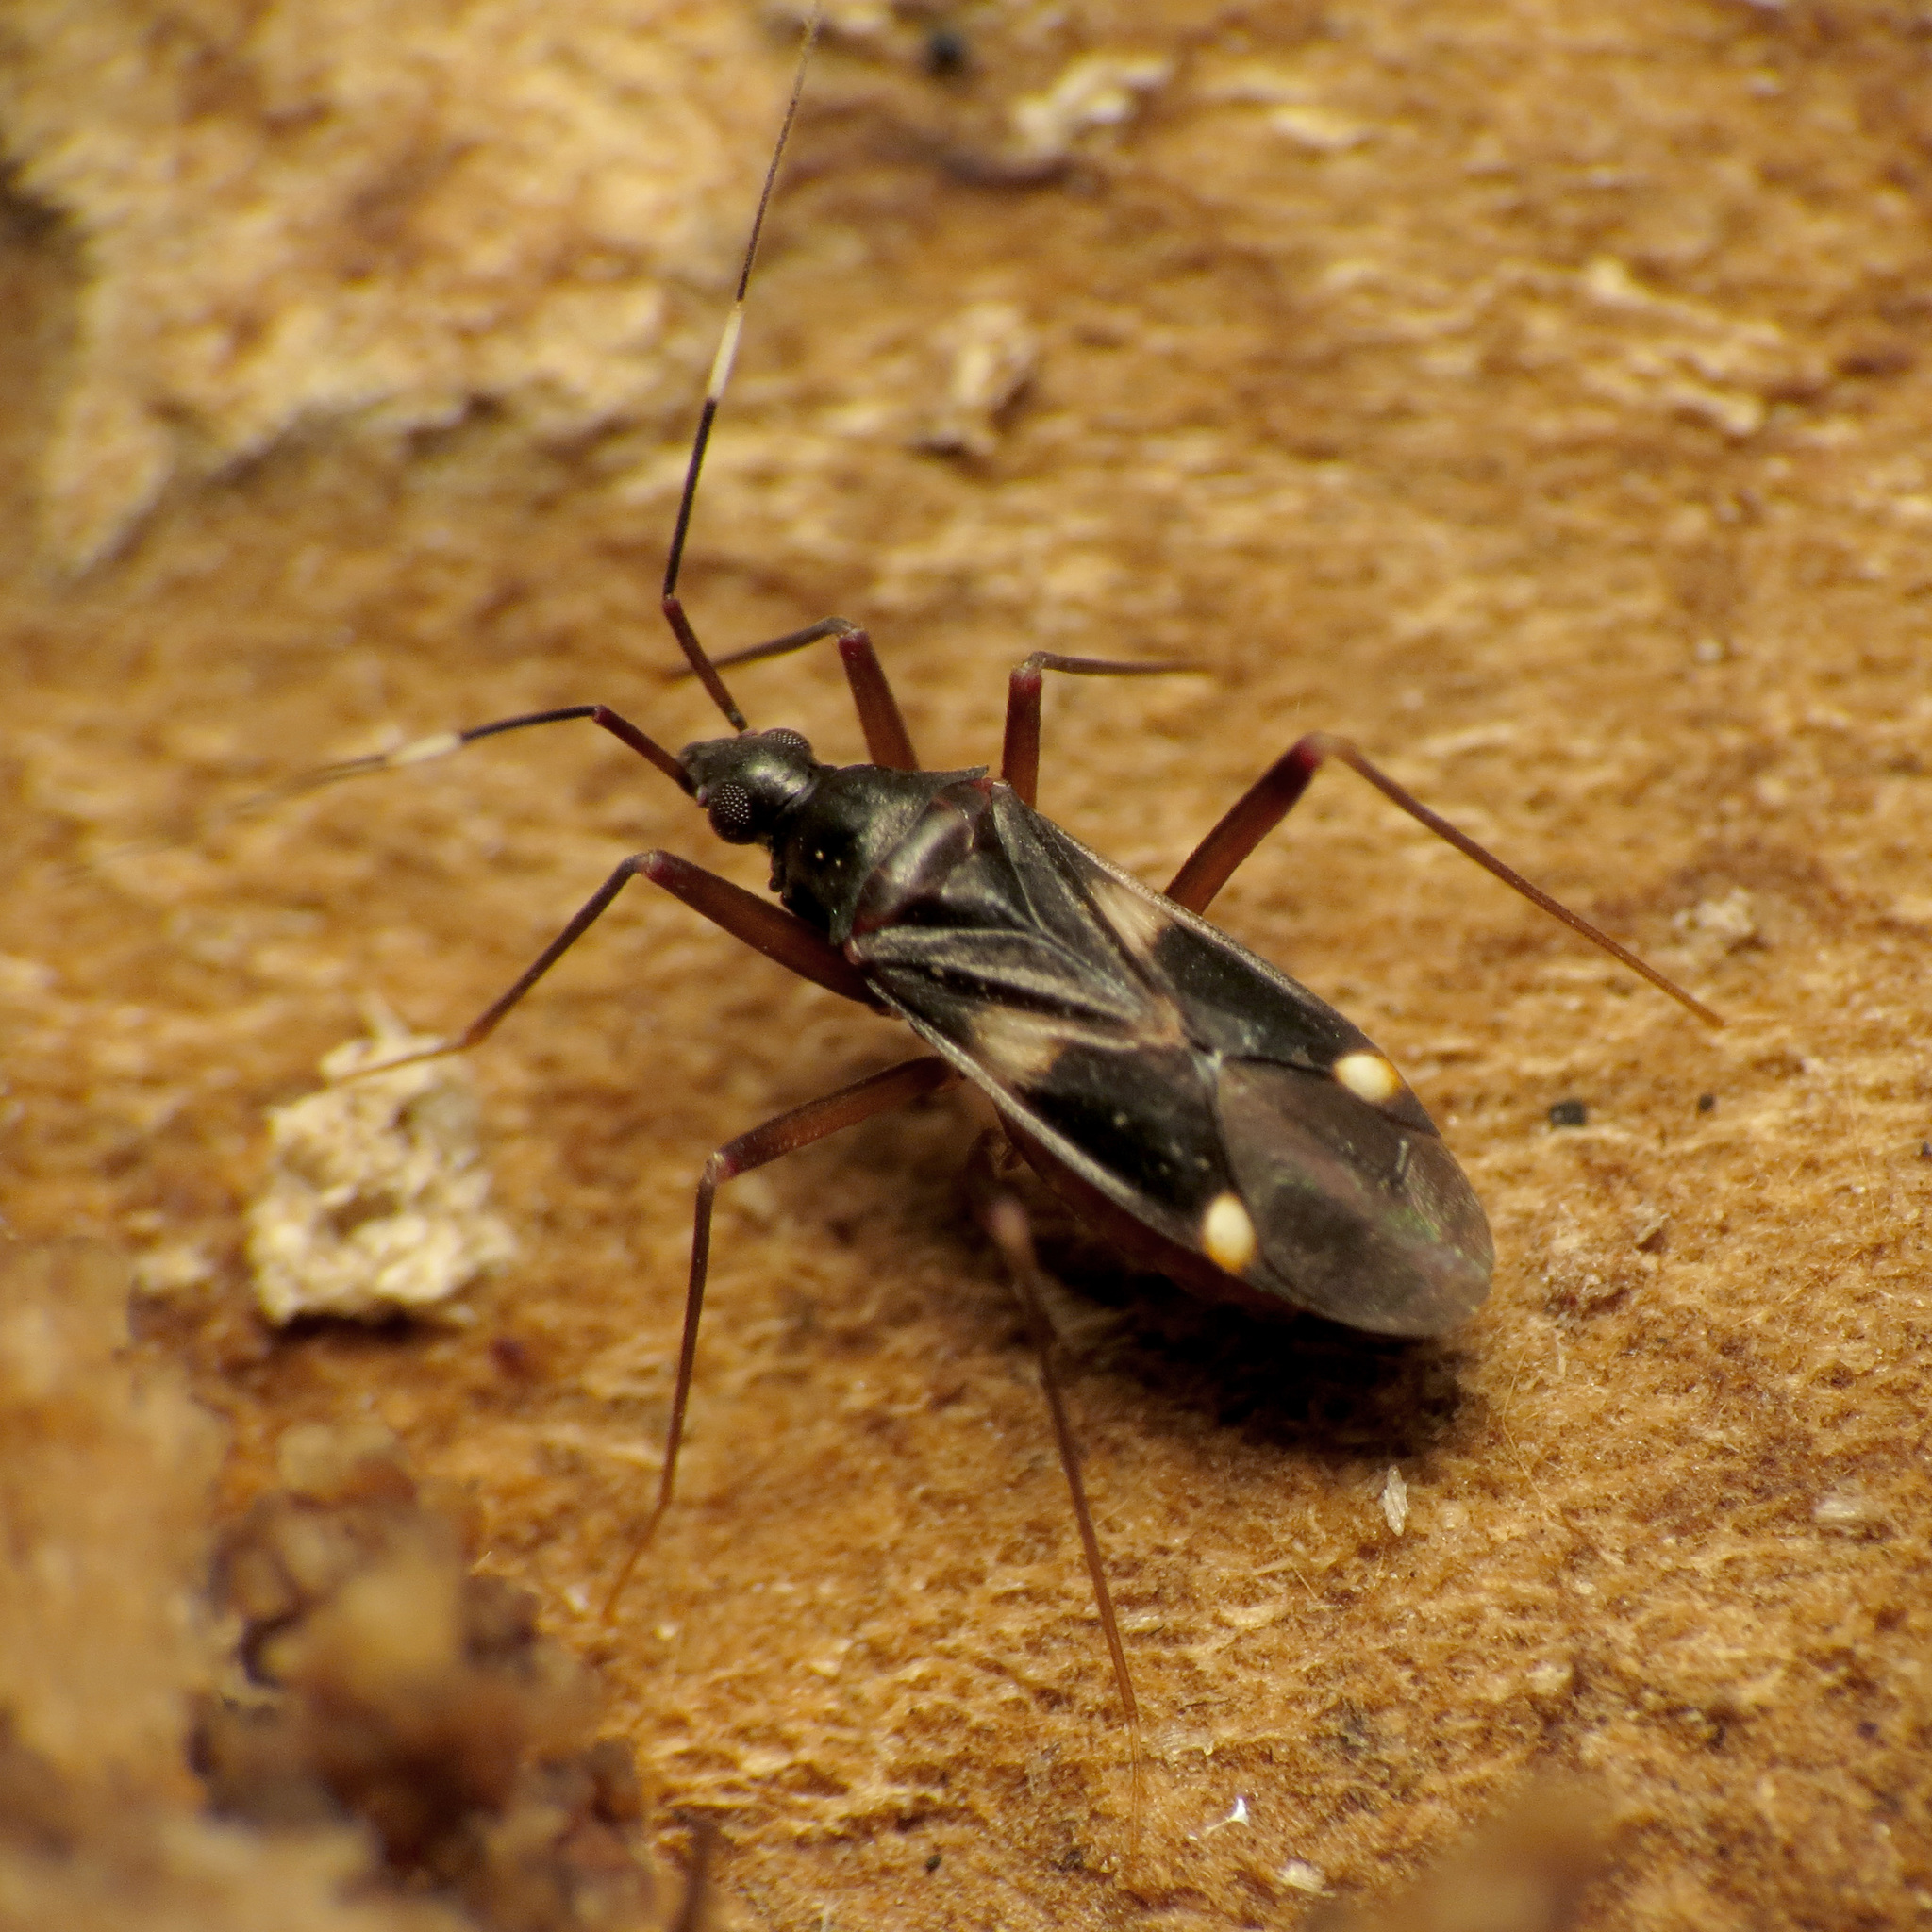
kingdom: Animalia
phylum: Arthropoda
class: Insecta
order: Hemiptera
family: Miridae
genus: Fulvius
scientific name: Fulvius imbecilis
